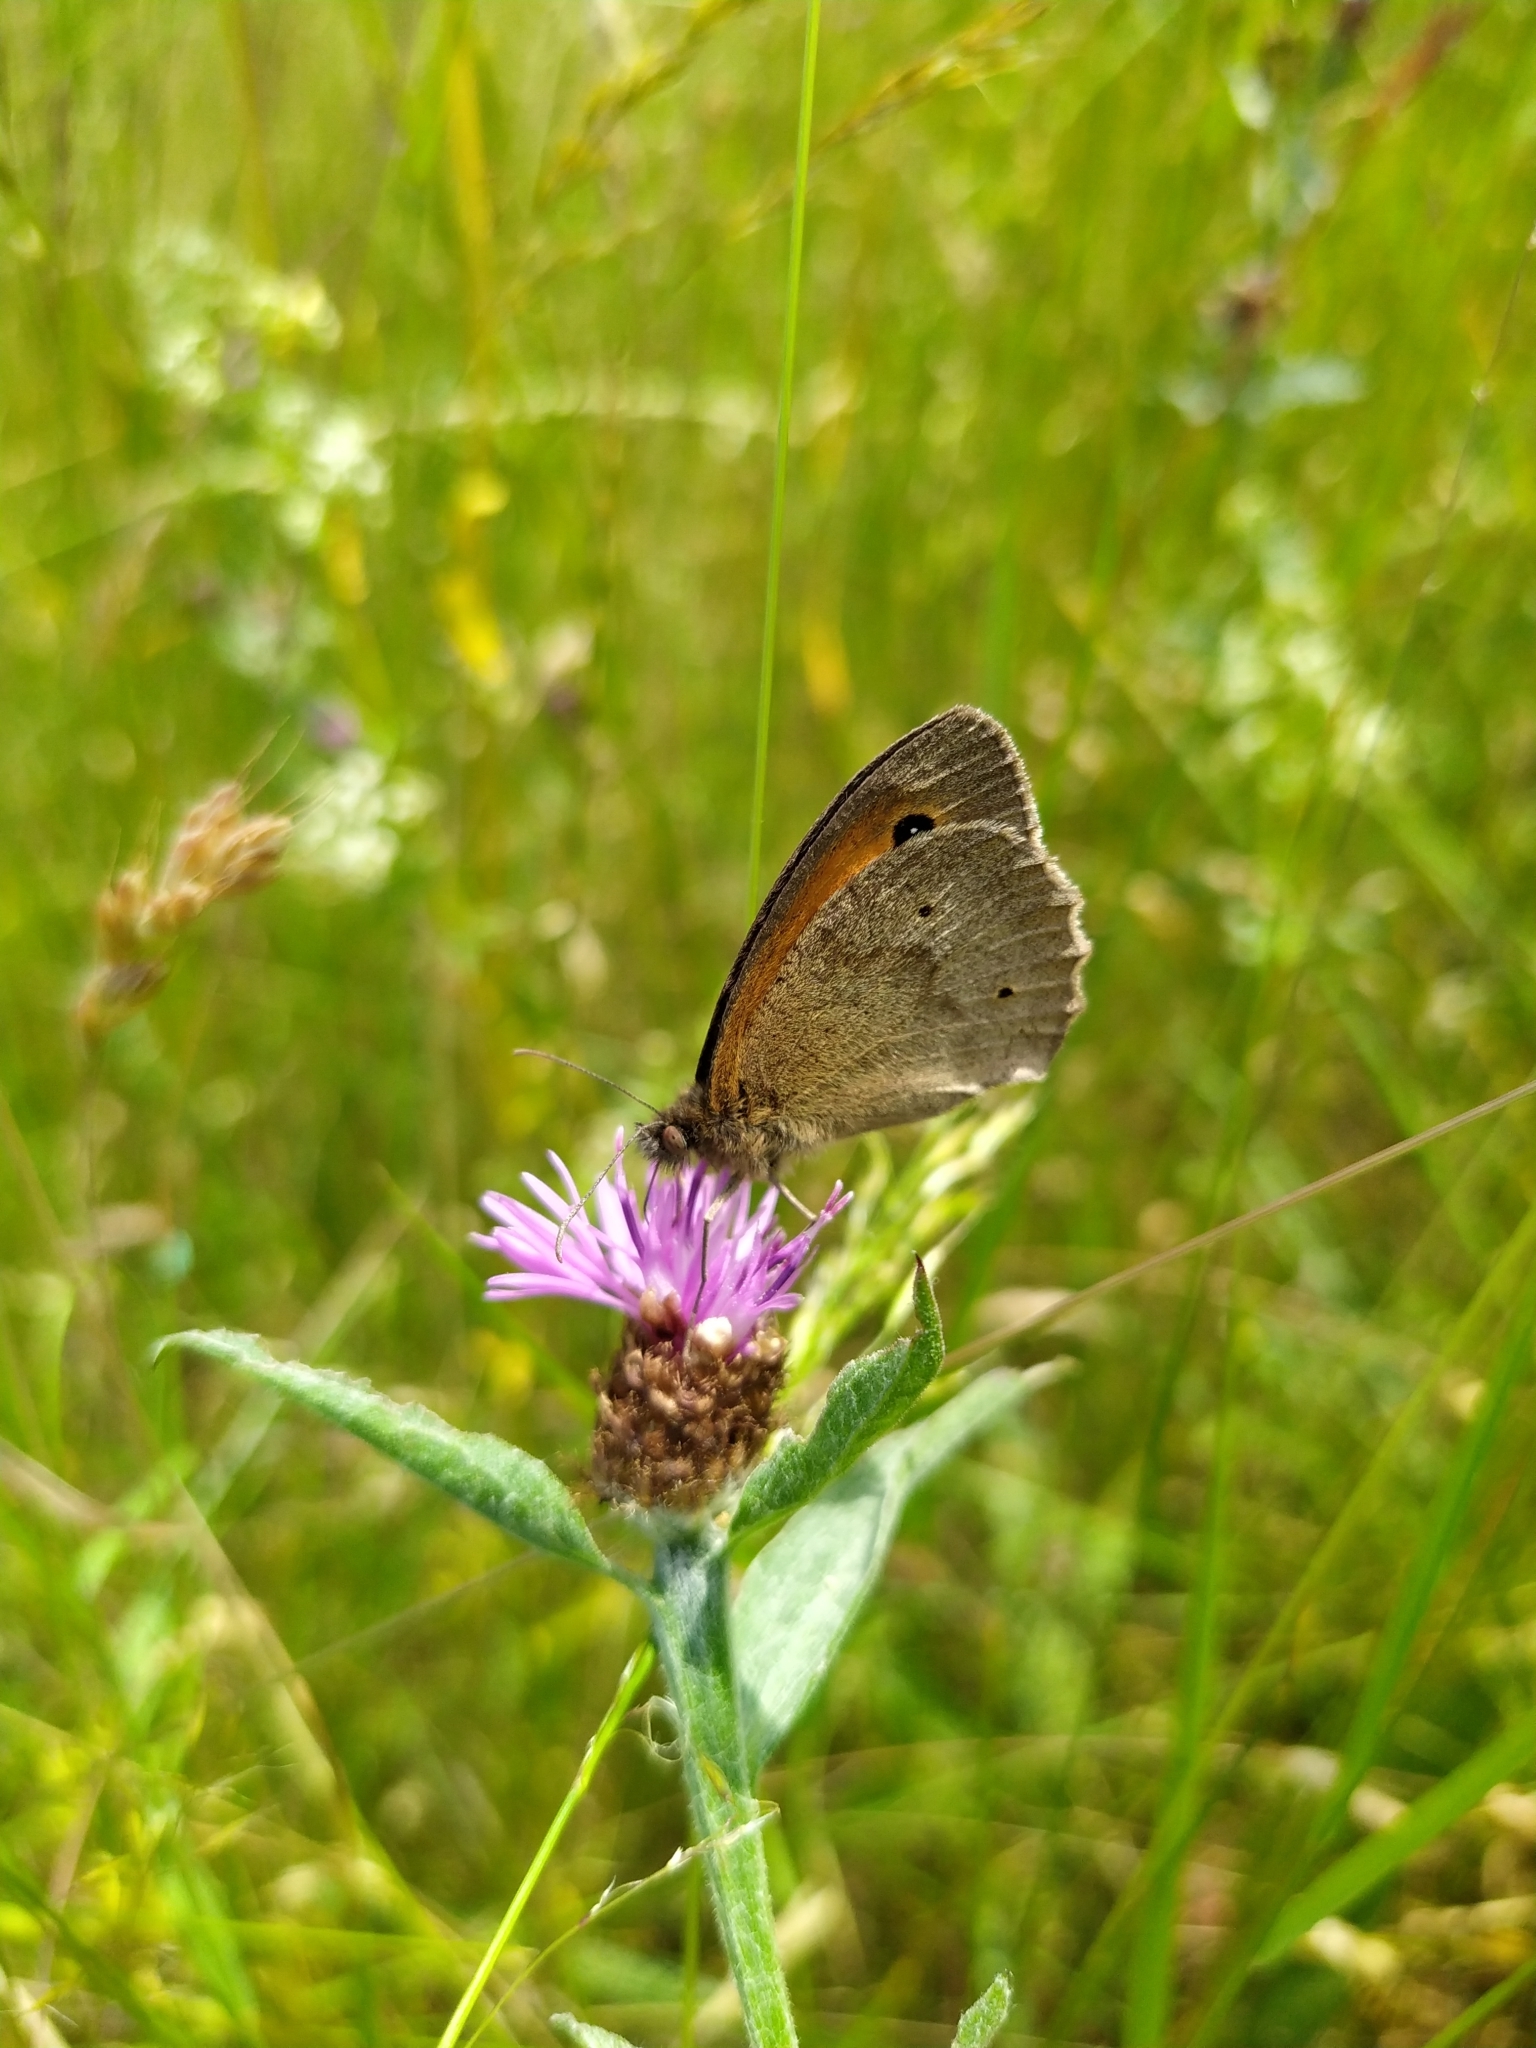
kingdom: Animalia
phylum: Arthropoda
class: Insecta
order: Lepidoptera
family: Nymphalidae
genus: Maniola
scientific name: Maniola jurtina
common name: Meadow brown
